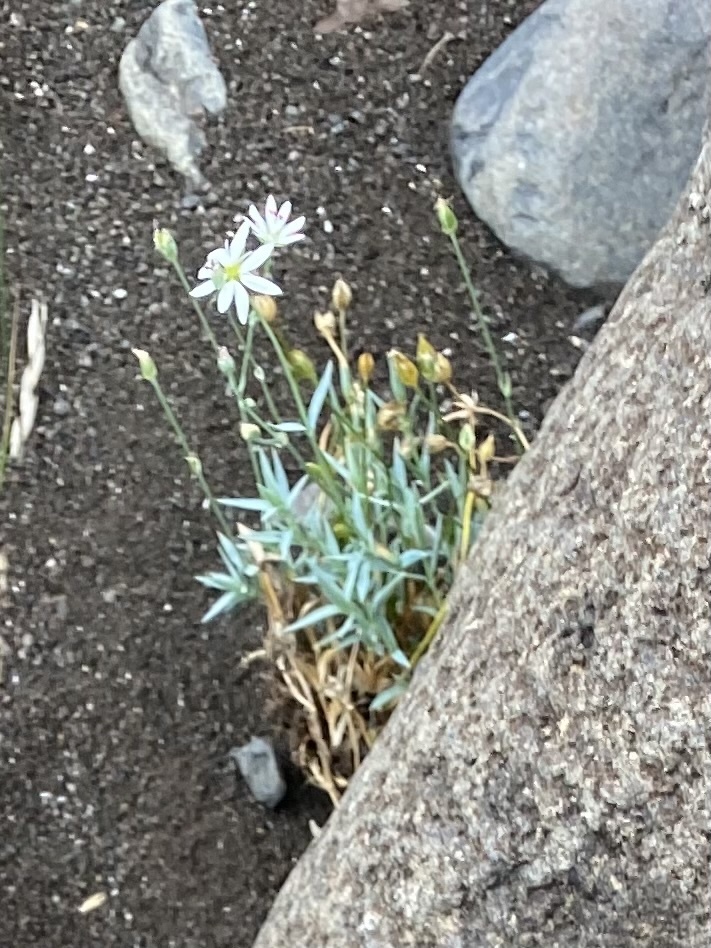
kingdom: Plantae
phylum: Tracheophyta
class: Magnoliopsida
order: Caryophyllales
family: Caryophyllaceae
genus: Stellaria
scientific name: Stellaria fischeriana
